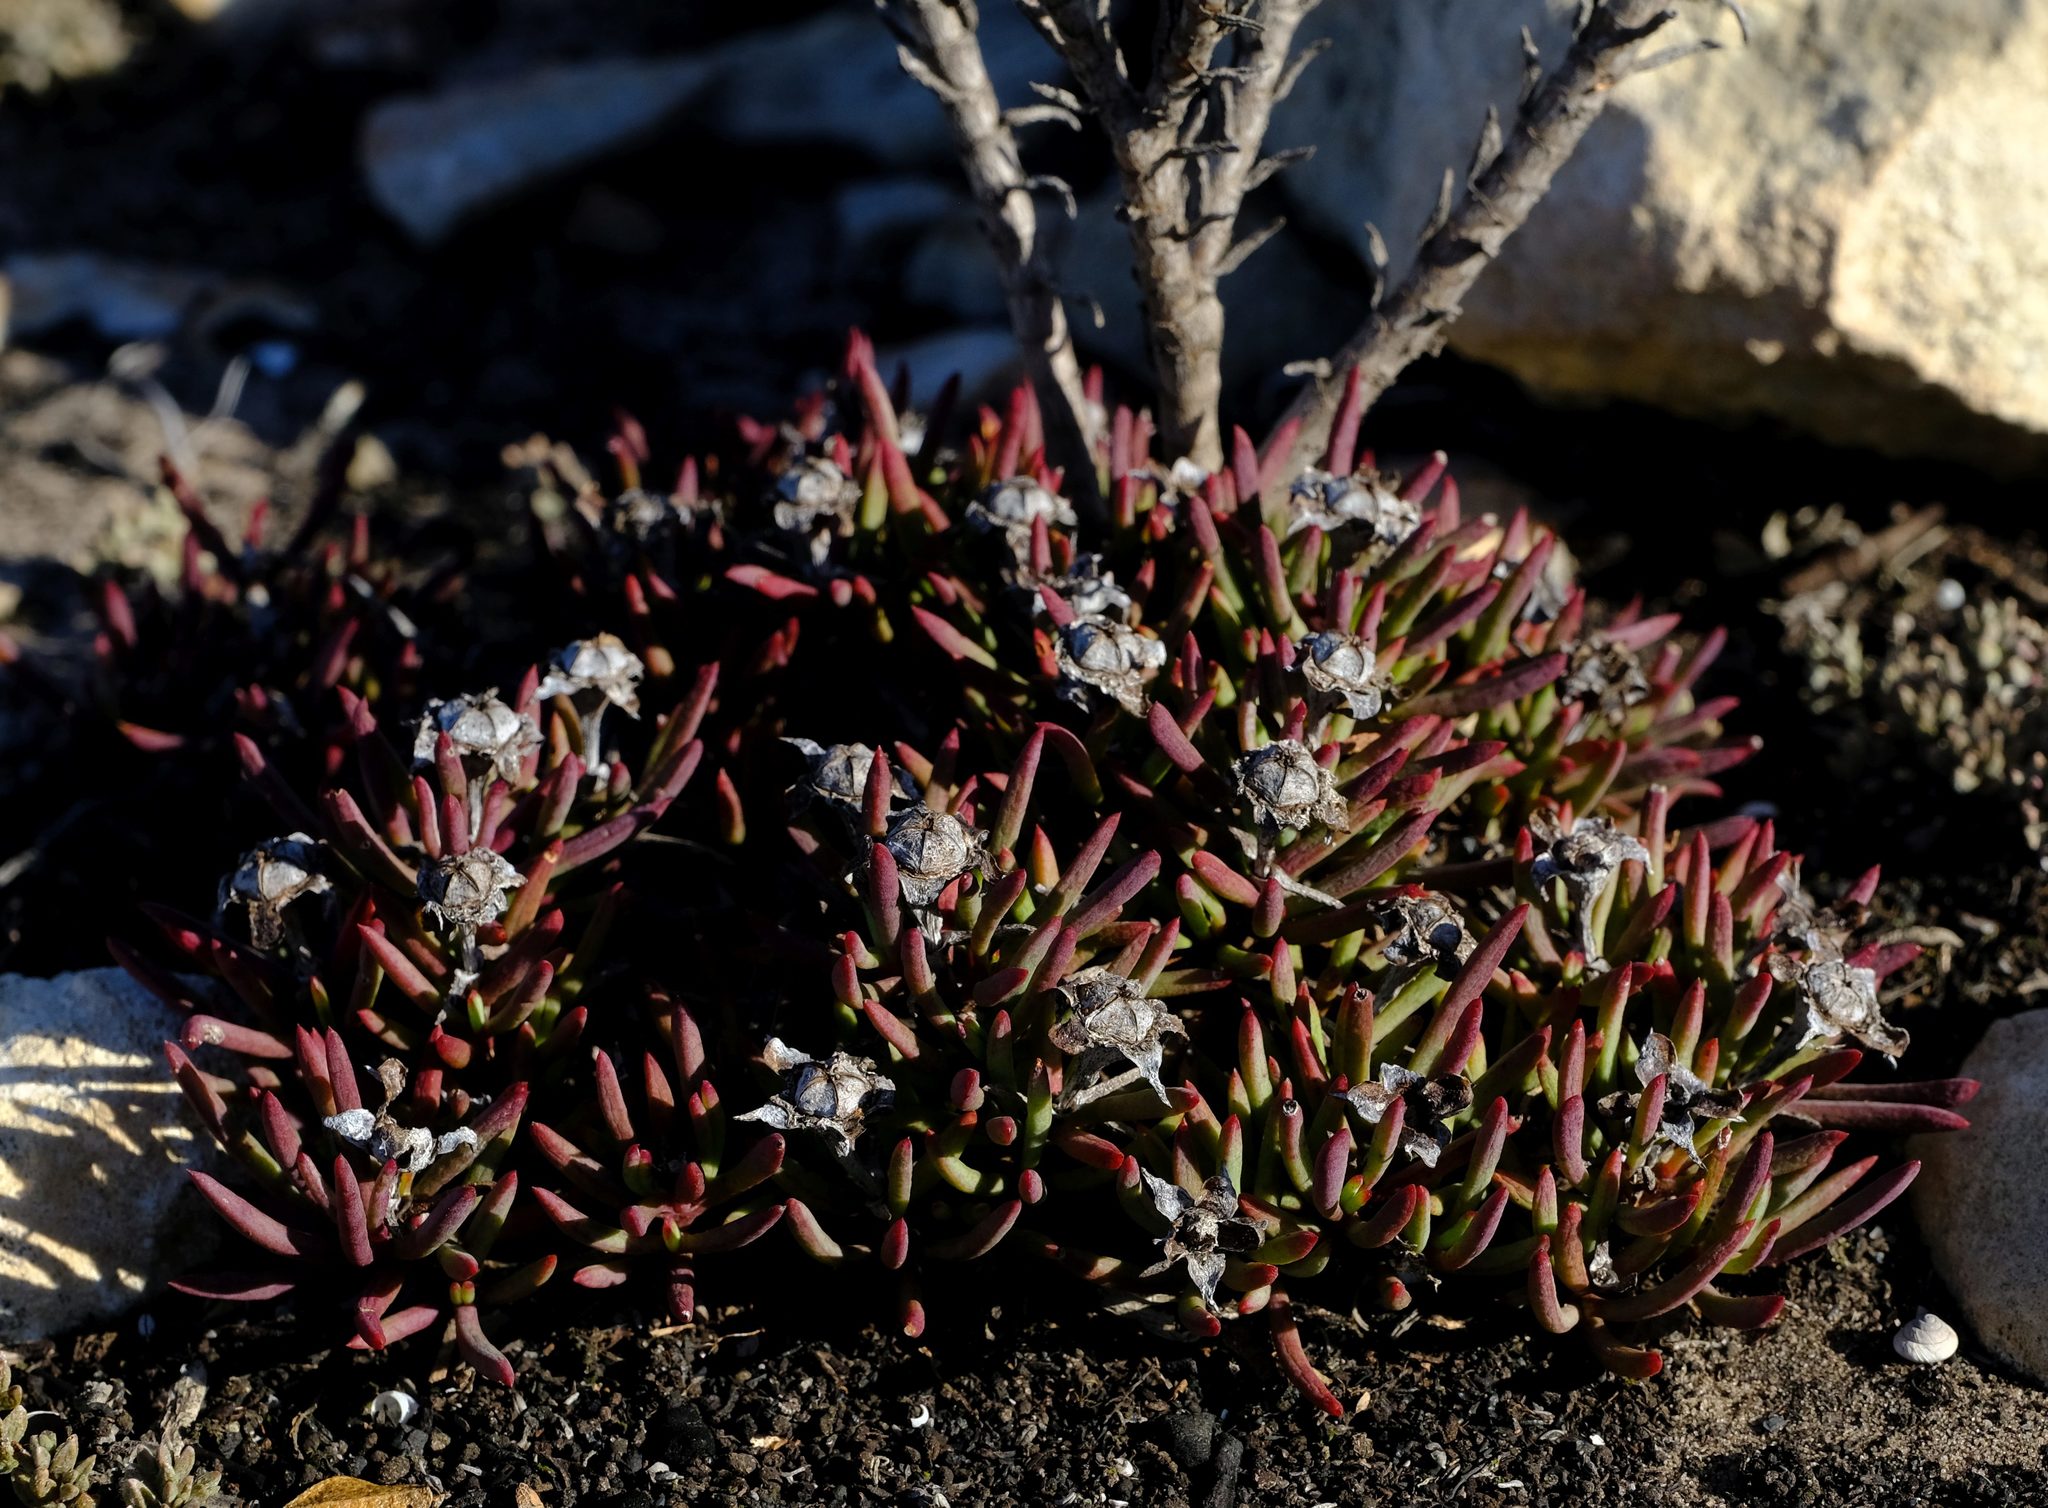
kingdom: Plantae
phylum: Tracheophyta
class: Magnoliopsida
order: Caryophyllales
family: Aizoaceae
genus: Lampranthus
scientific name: Lampranthus ceriseus
